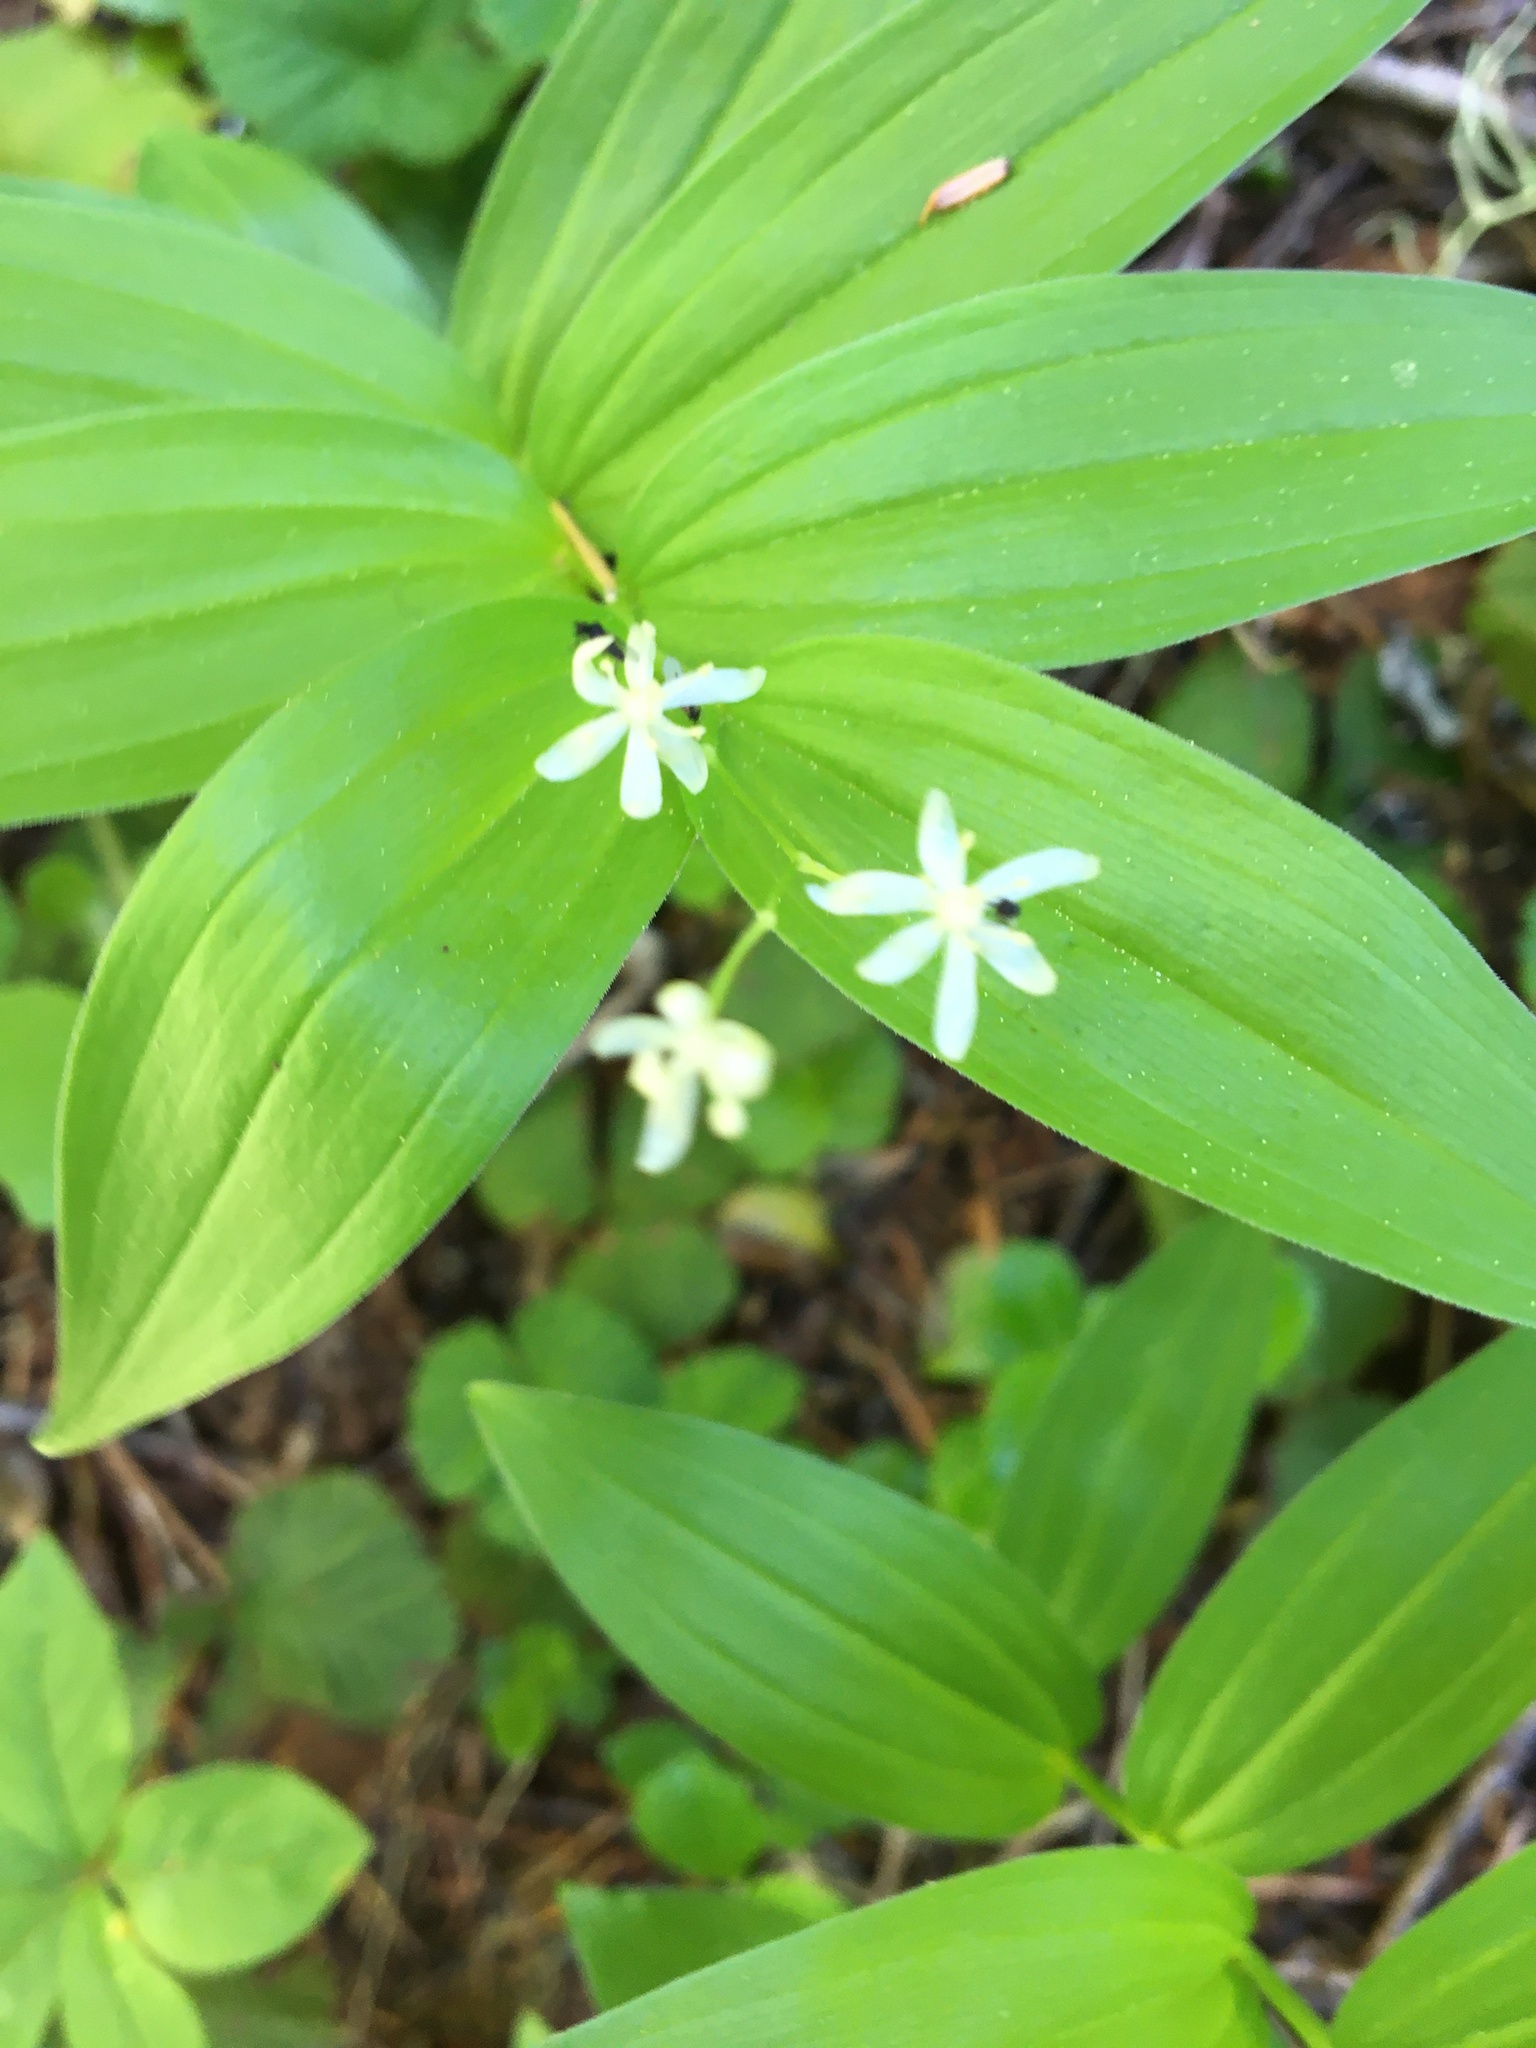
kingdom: Plantae
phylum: Tracheophyta
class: Liliopsida
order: Asparagales
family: Asparagaceae
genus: Maianthemum
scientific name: Maianthemum stellatum
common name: Little false solomon's seal
